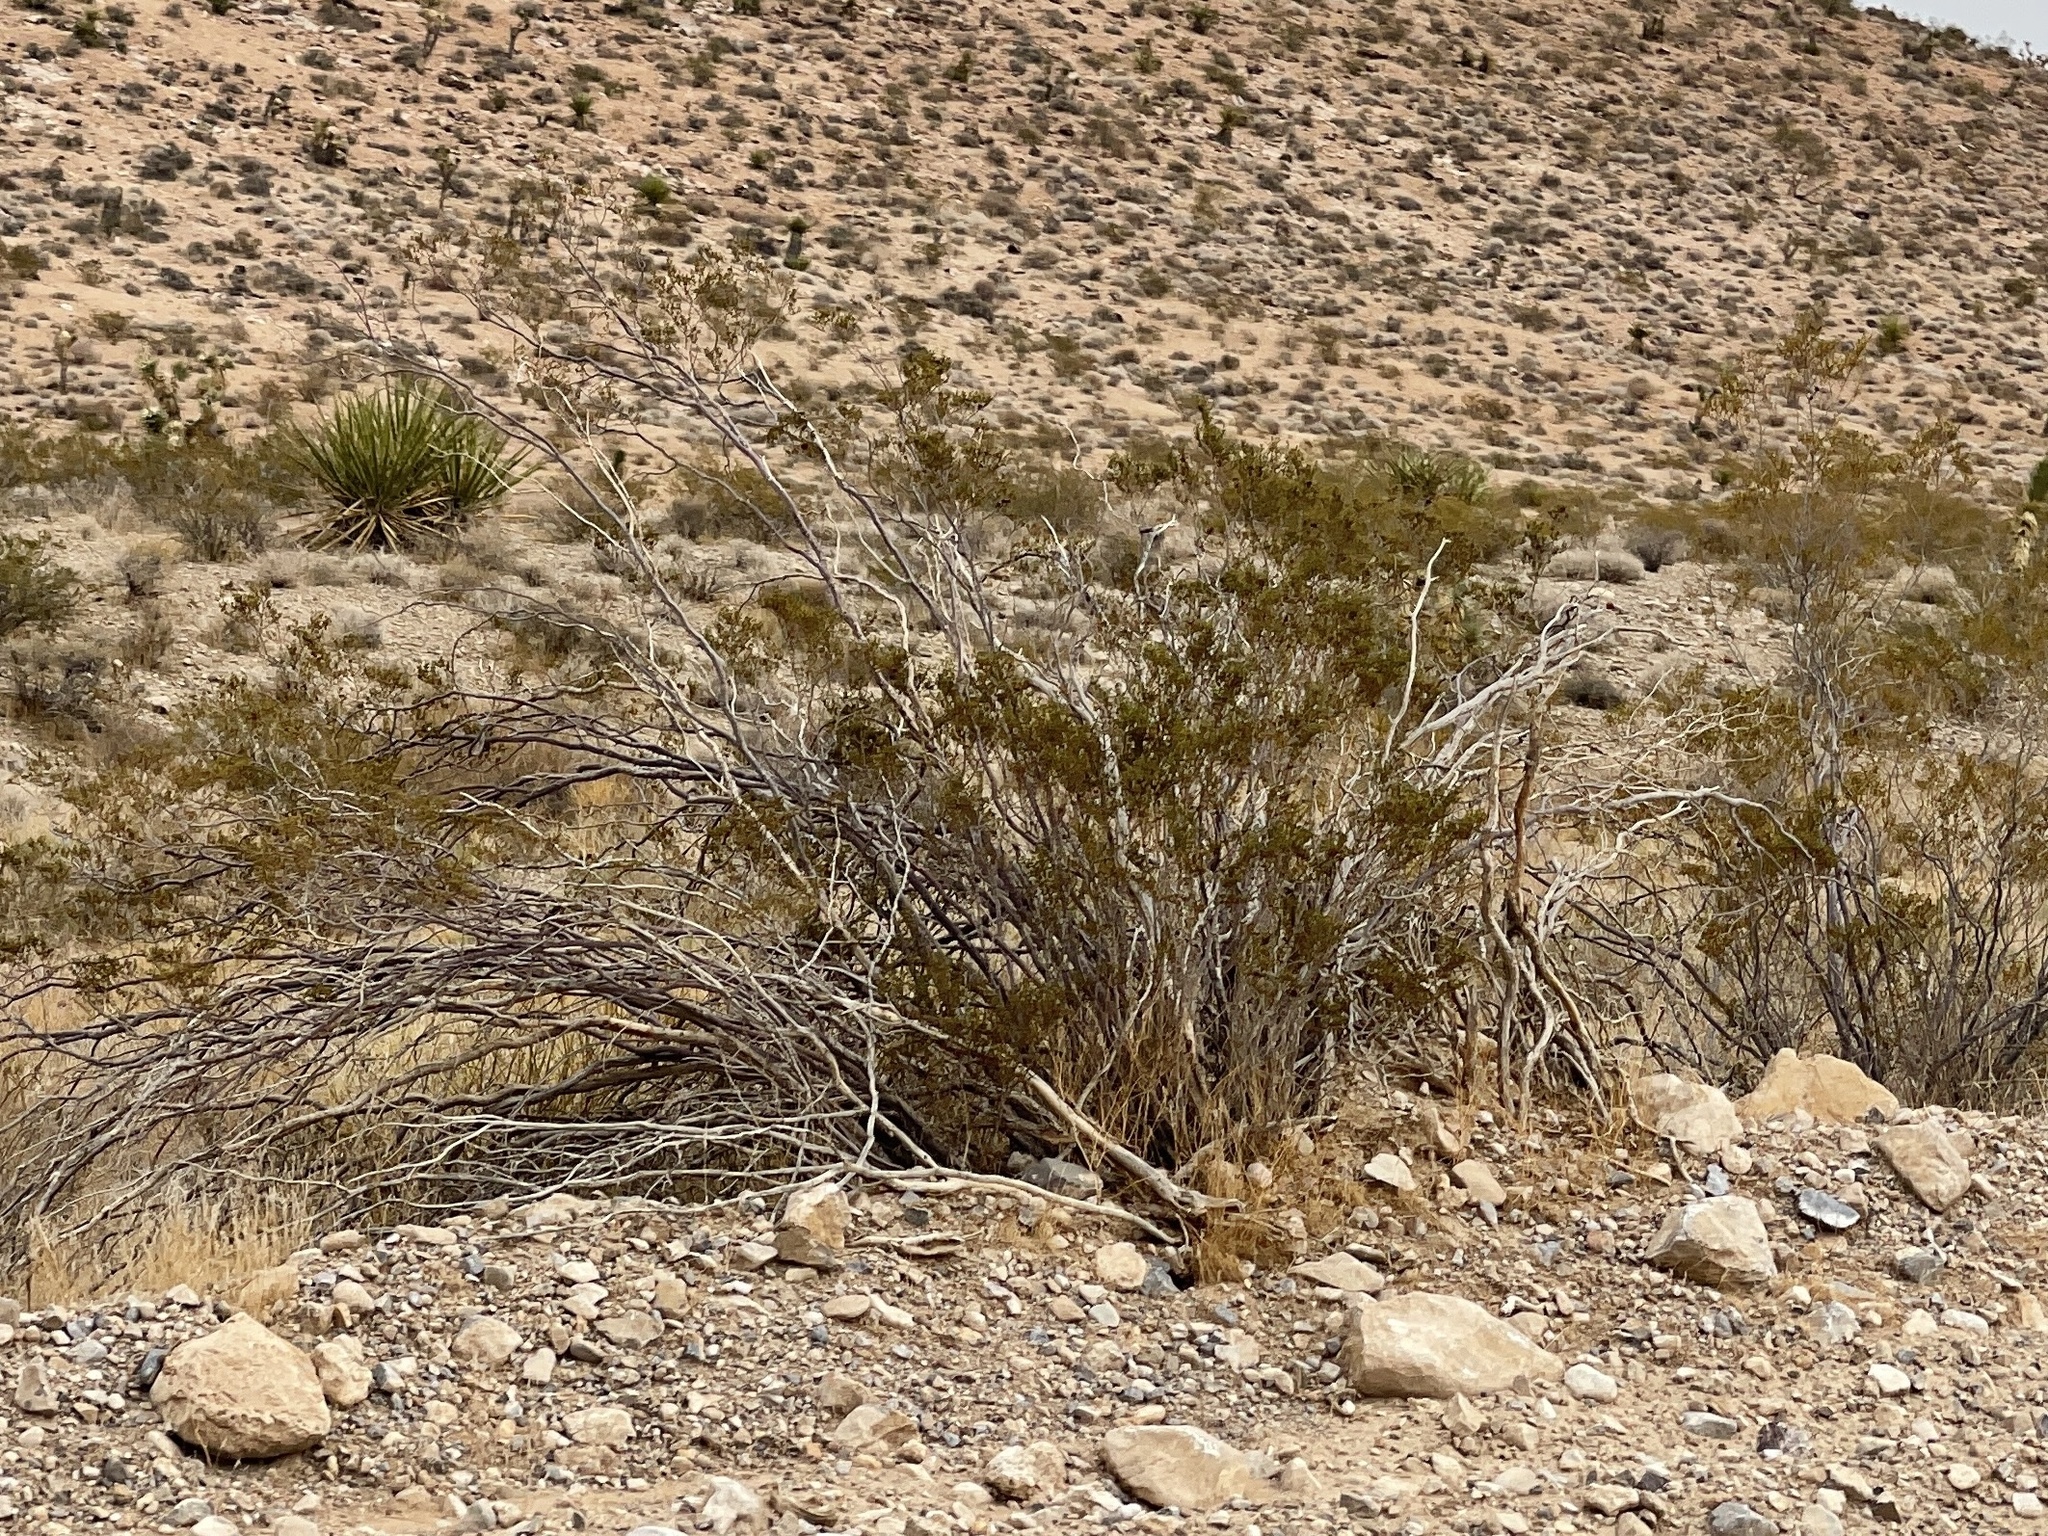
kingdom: Plantae
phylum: Tracheophyta
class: Magnoliopsida
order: Zygophyllales
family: Zygophyllaceae
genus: Larrea
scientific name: Larrea tridentata
